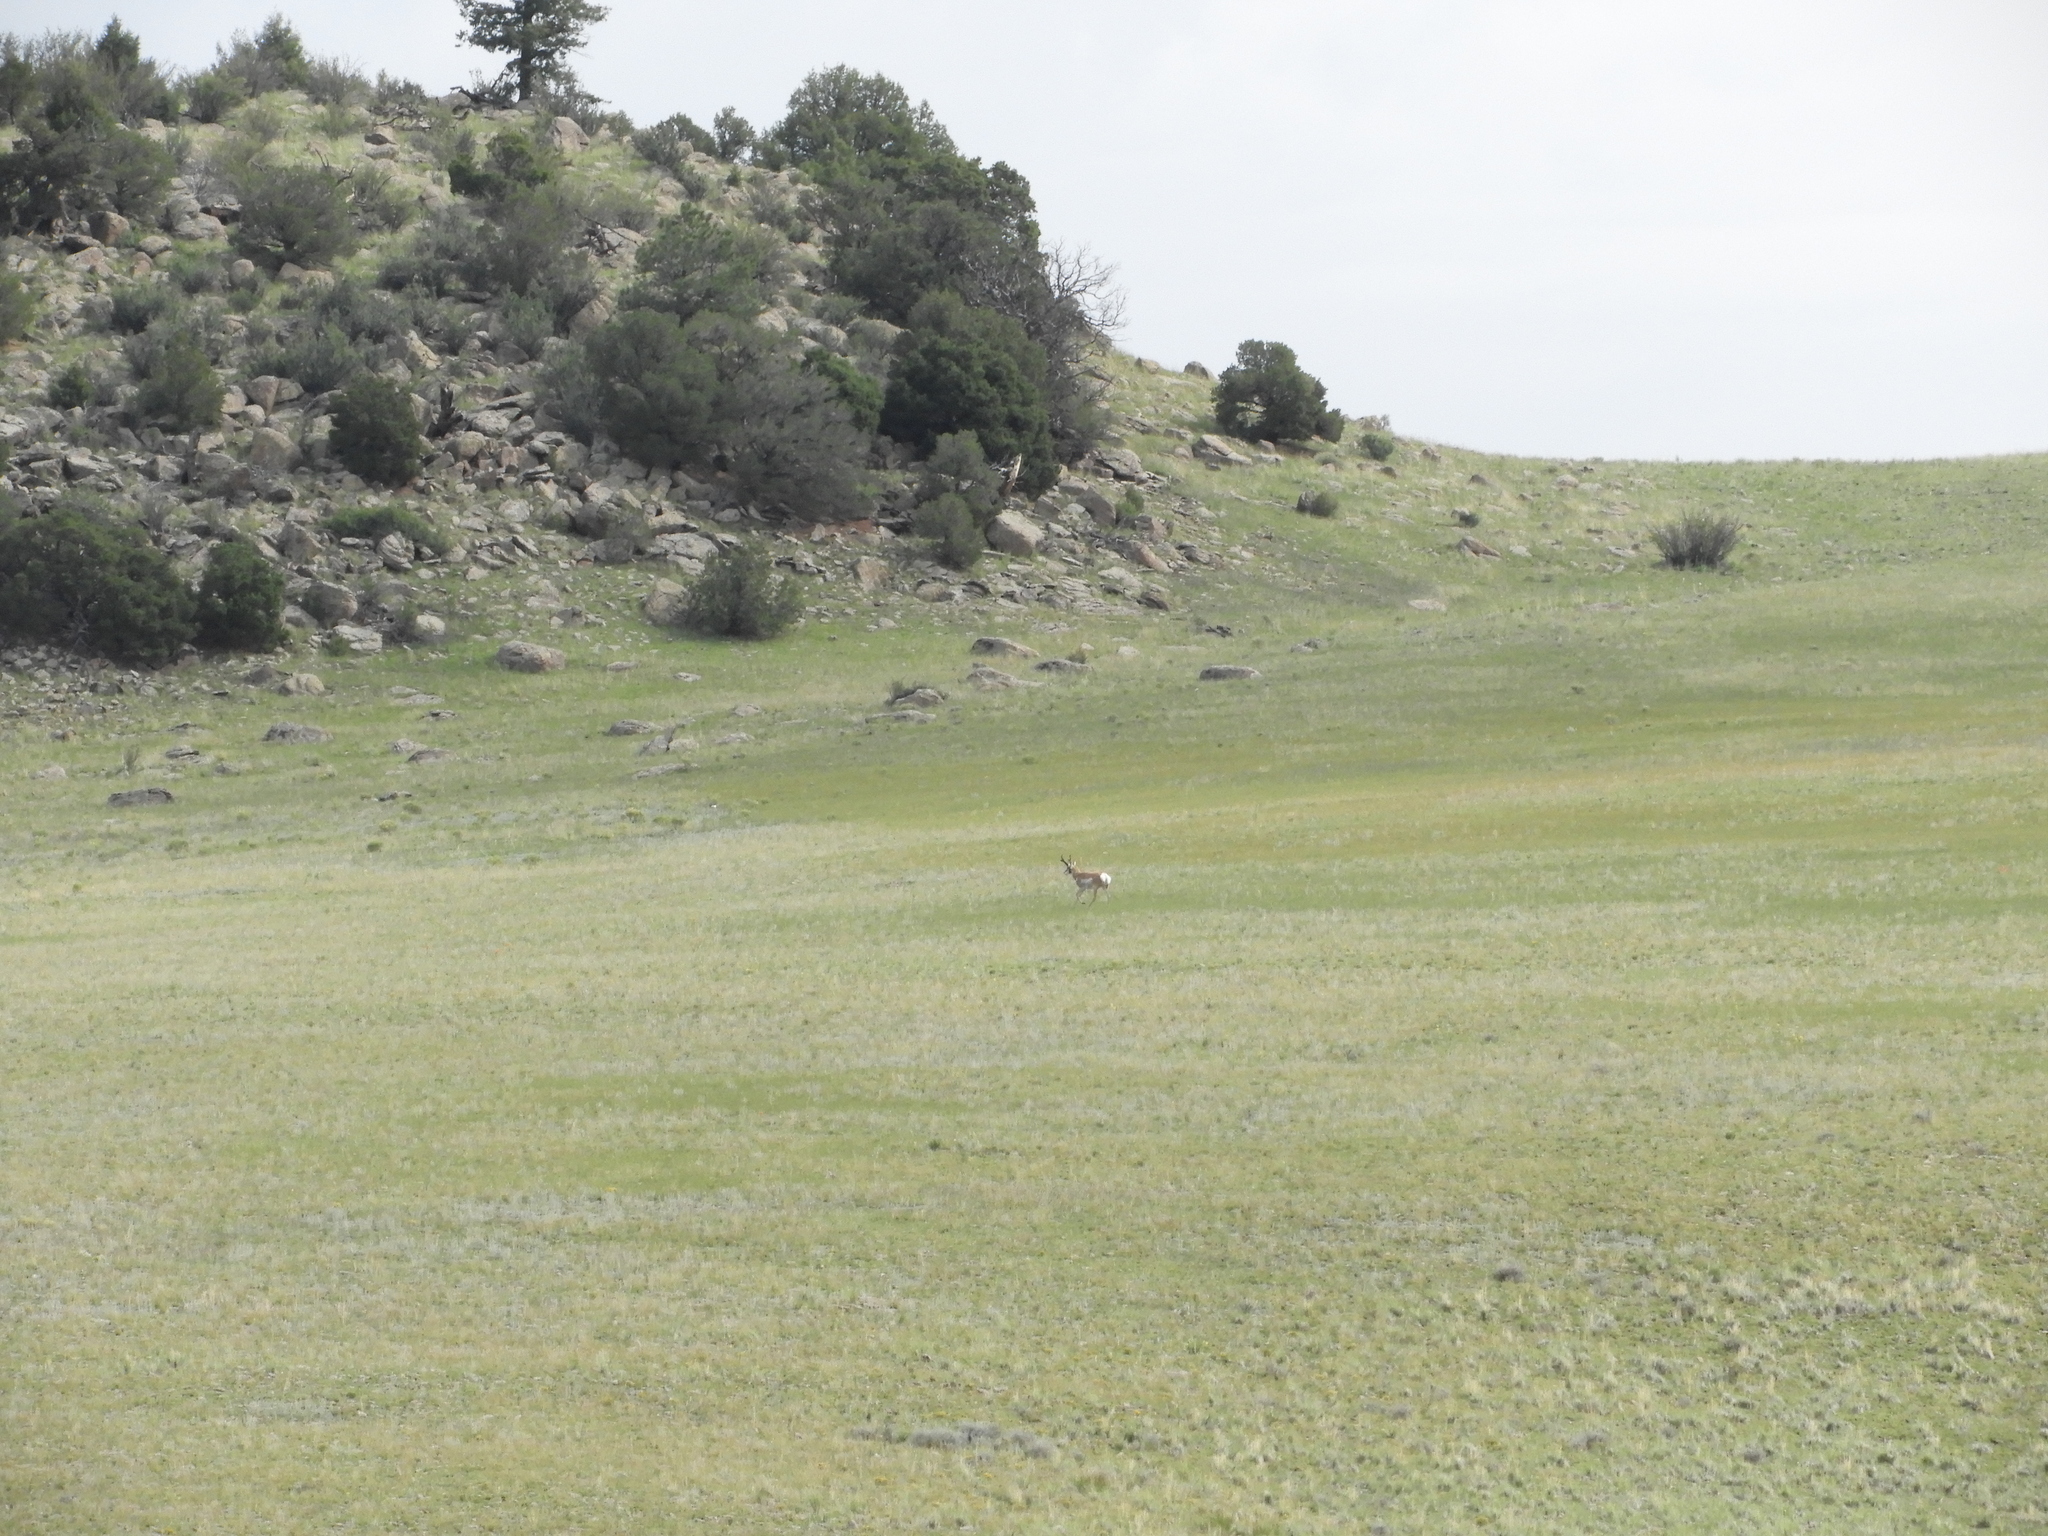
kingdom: Animalia
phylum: Chordata
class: Mammalia
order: Artiodactyla
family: Antilocapridae
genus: Antilocapra
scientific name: Antilocapra americana
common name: Pronghorn
